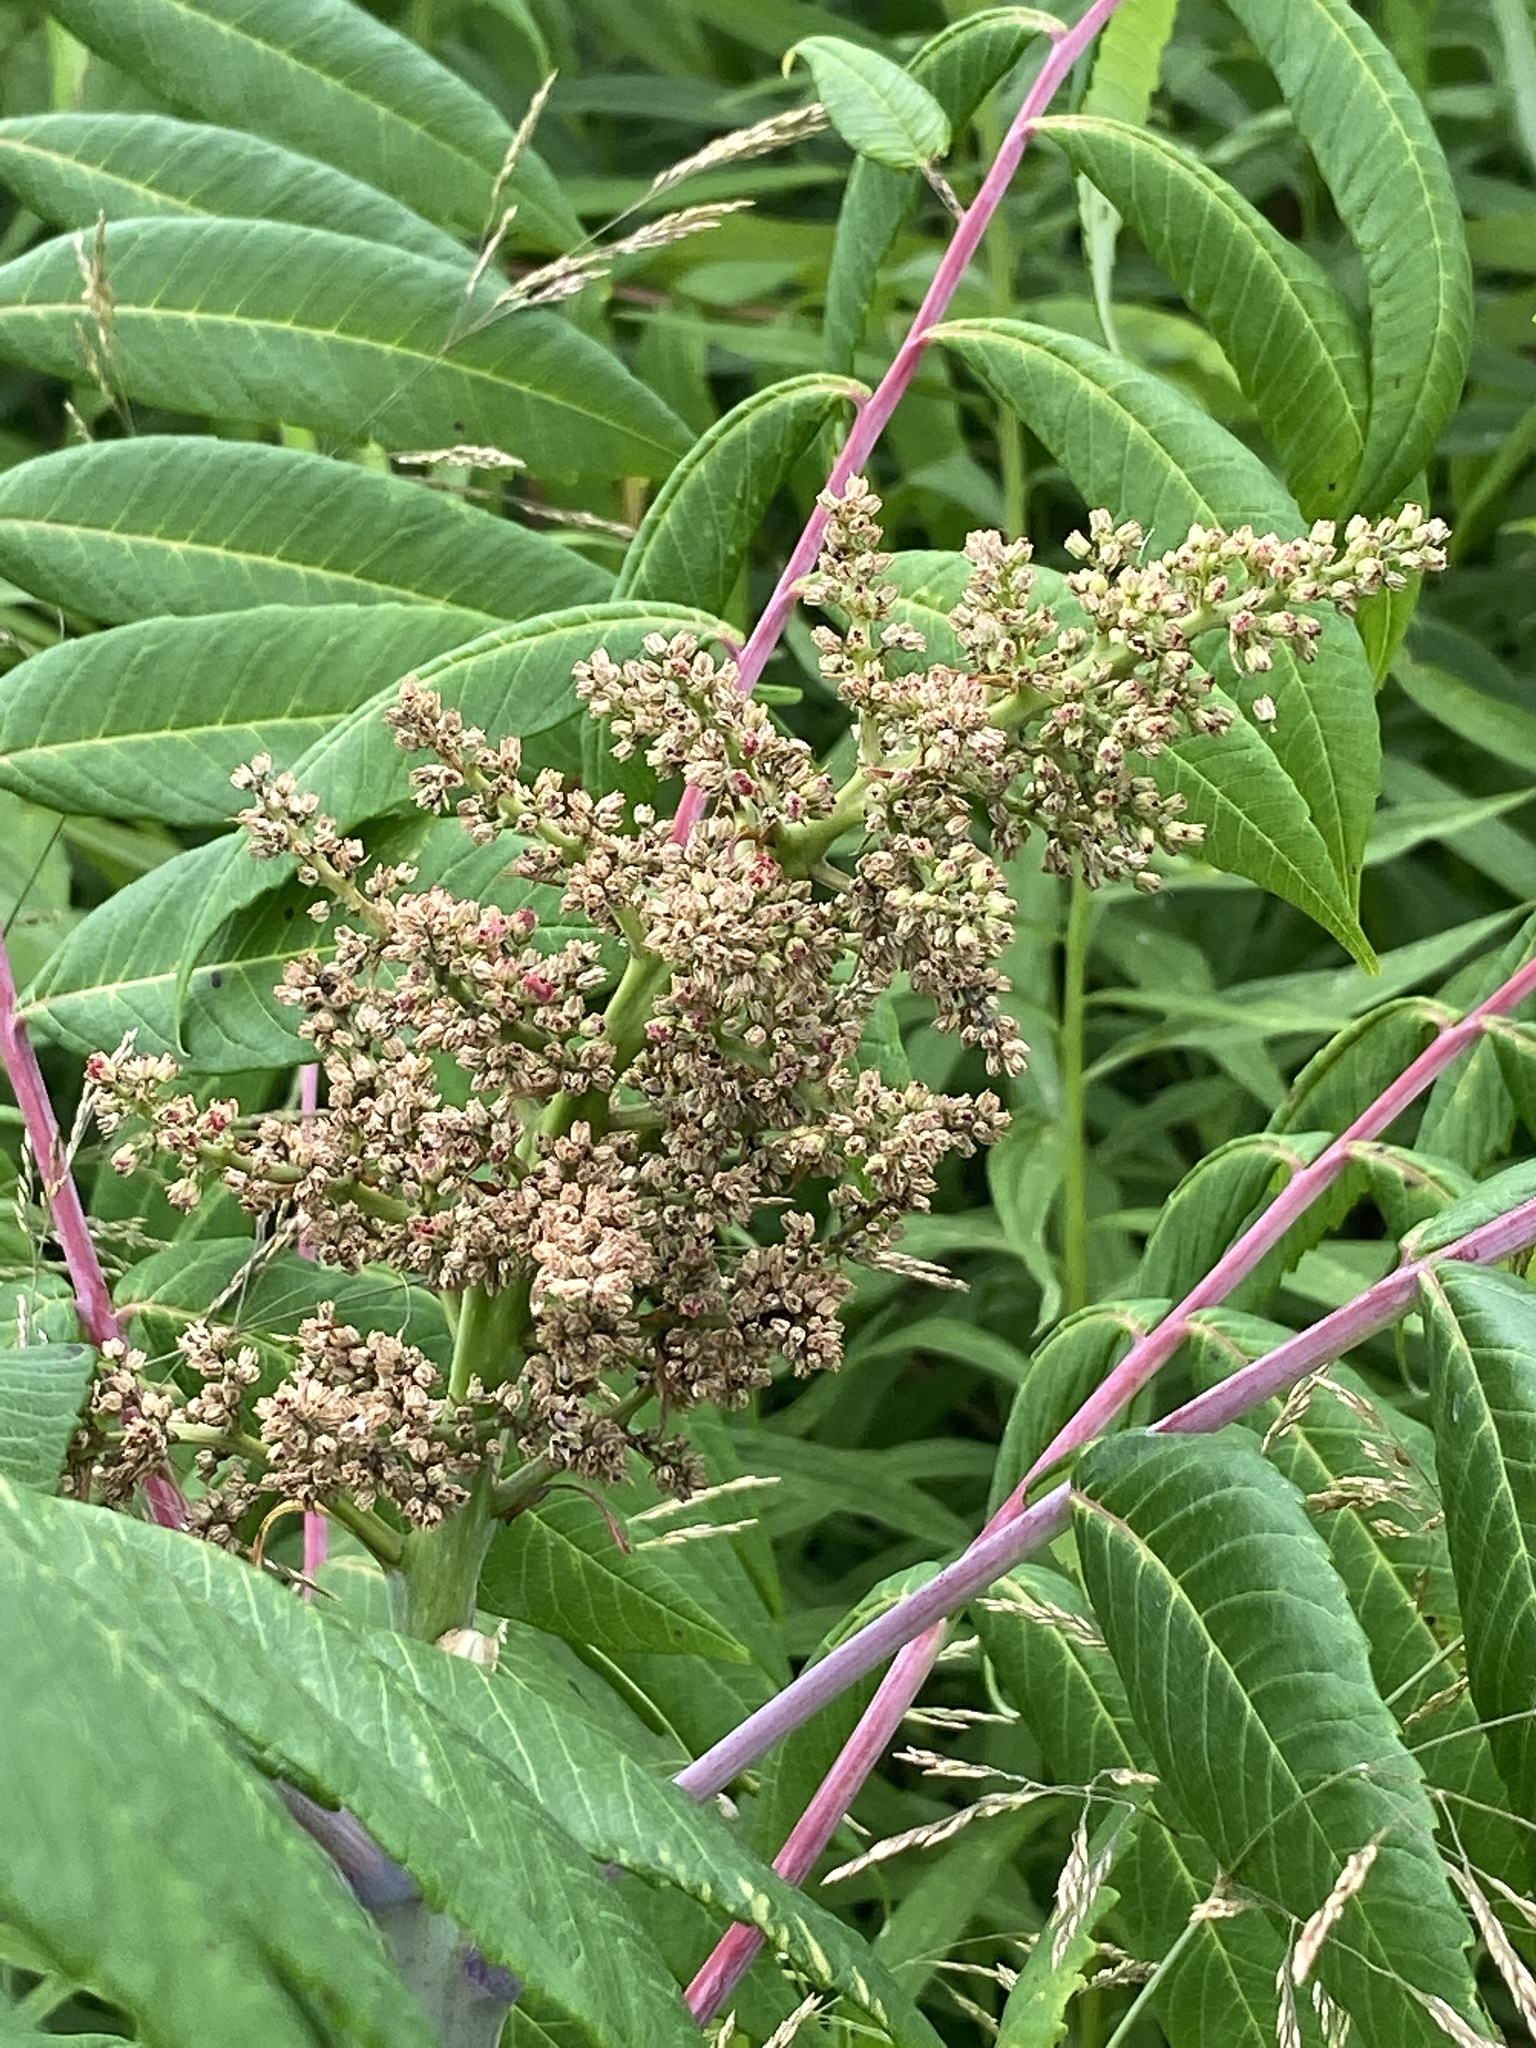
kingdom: Plantae
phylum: Tracheophyta
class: Magnoliopsida
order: Sapindales
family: Anacardiaceae
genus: Rhus
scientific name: Rhus glabra
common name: Scarlet sumac
